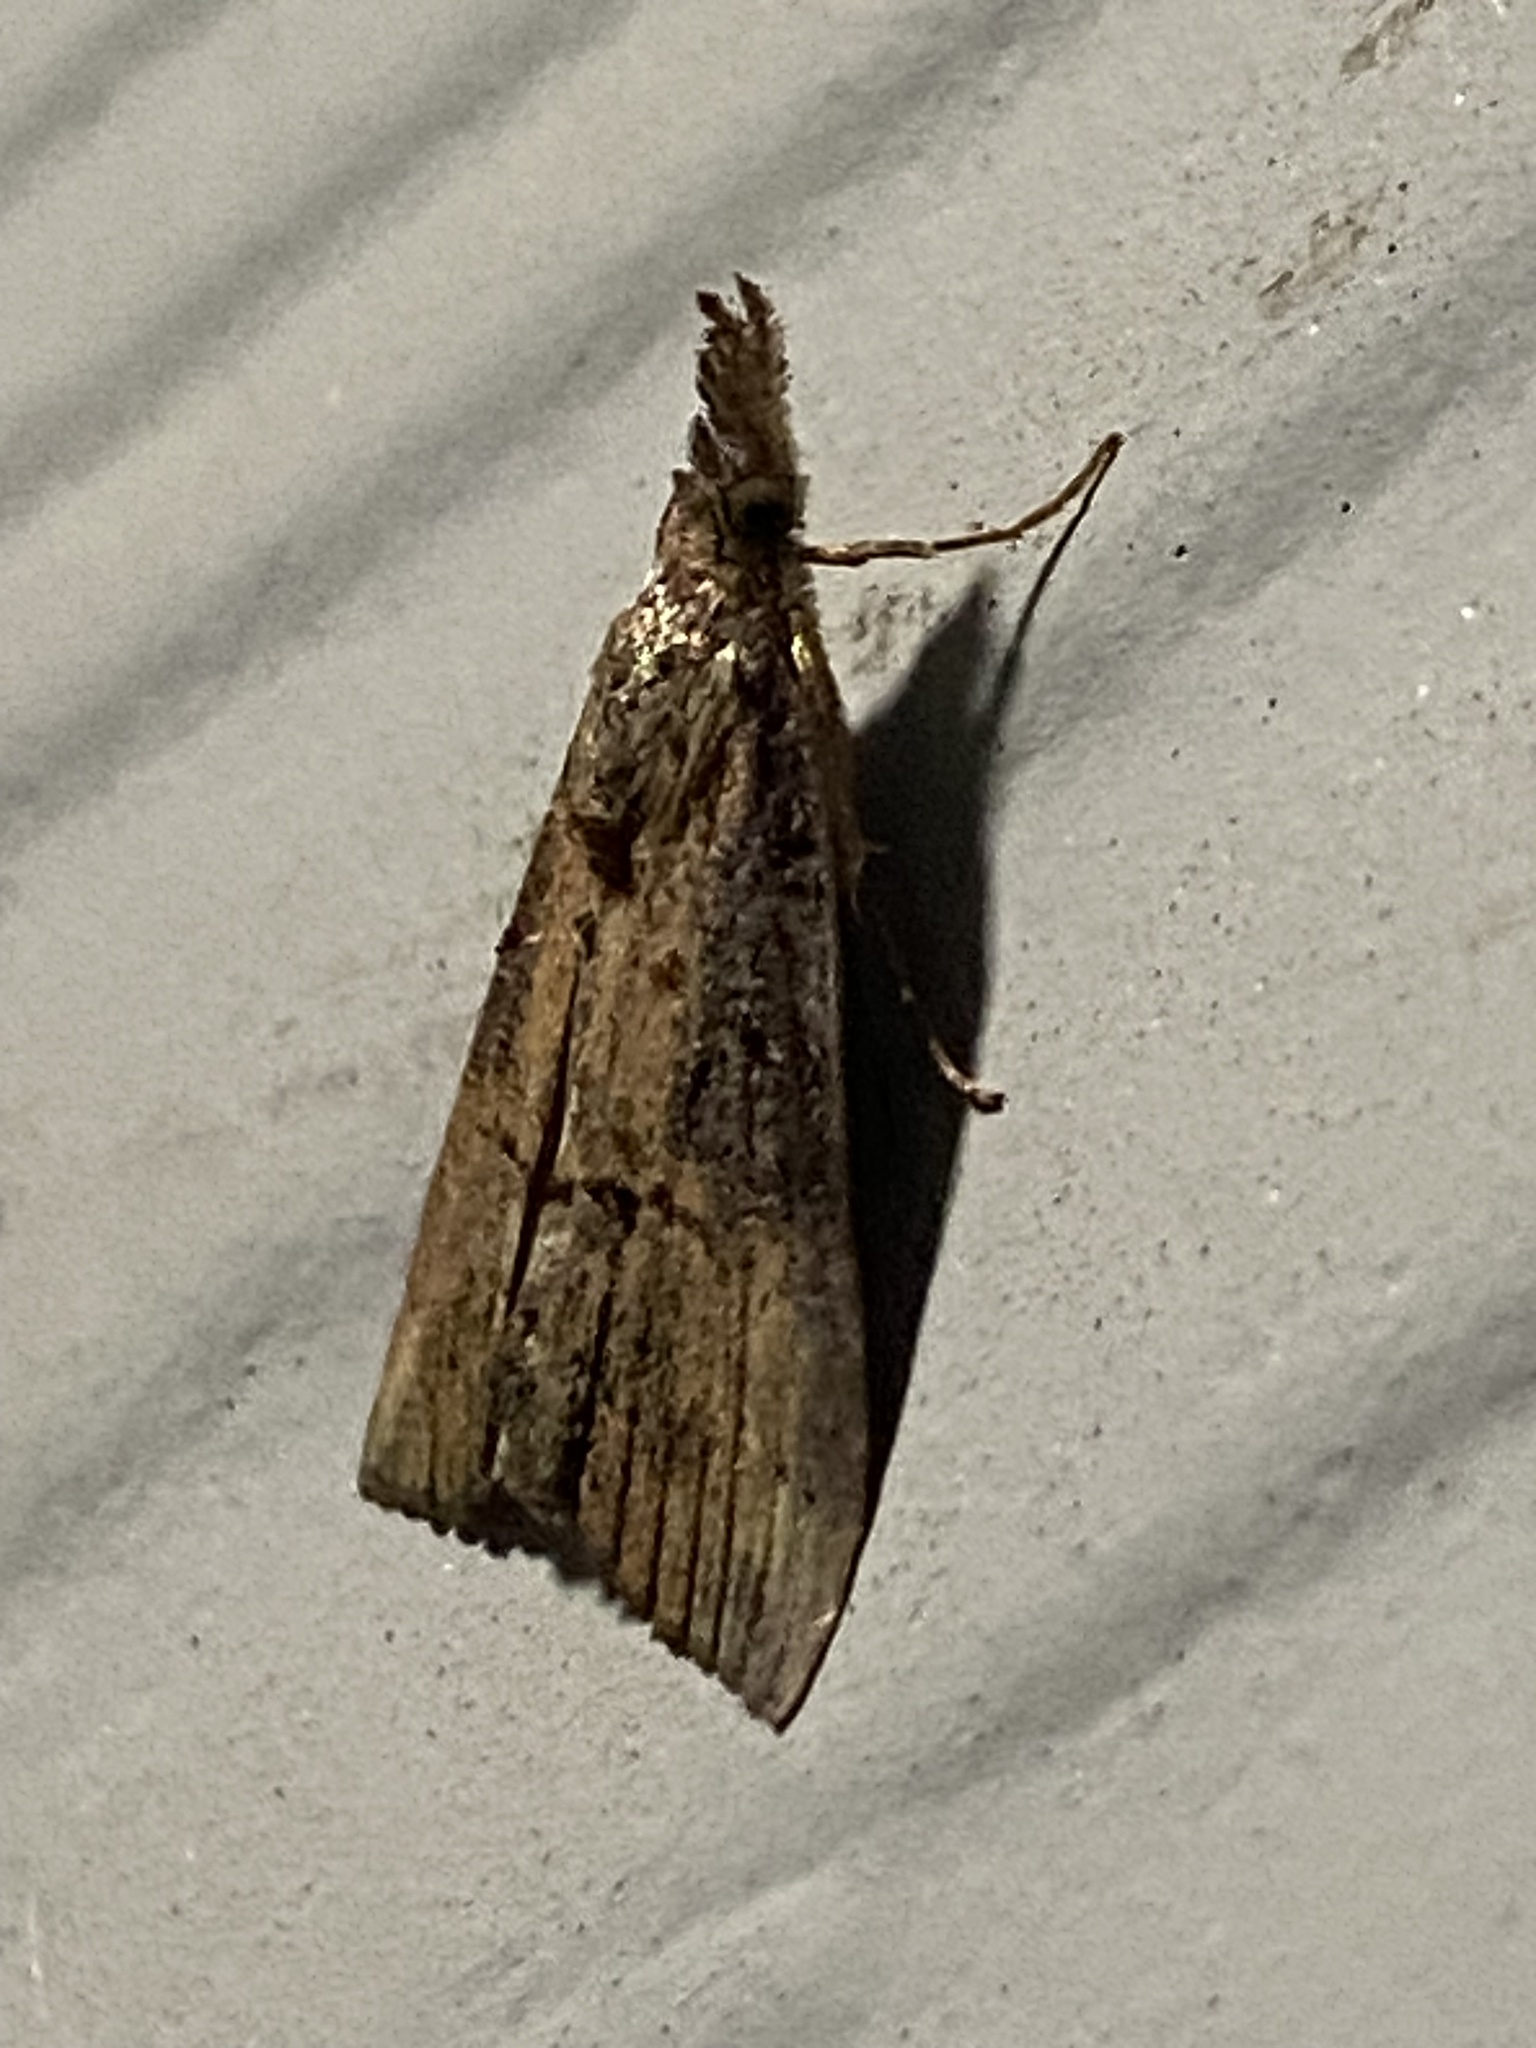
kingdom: Animalia
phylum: Arthropoda
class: Insecta
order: Lepidoptera
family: Erebidae
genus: Hypena
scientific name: Hypena scabra
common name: Green cloverworm
